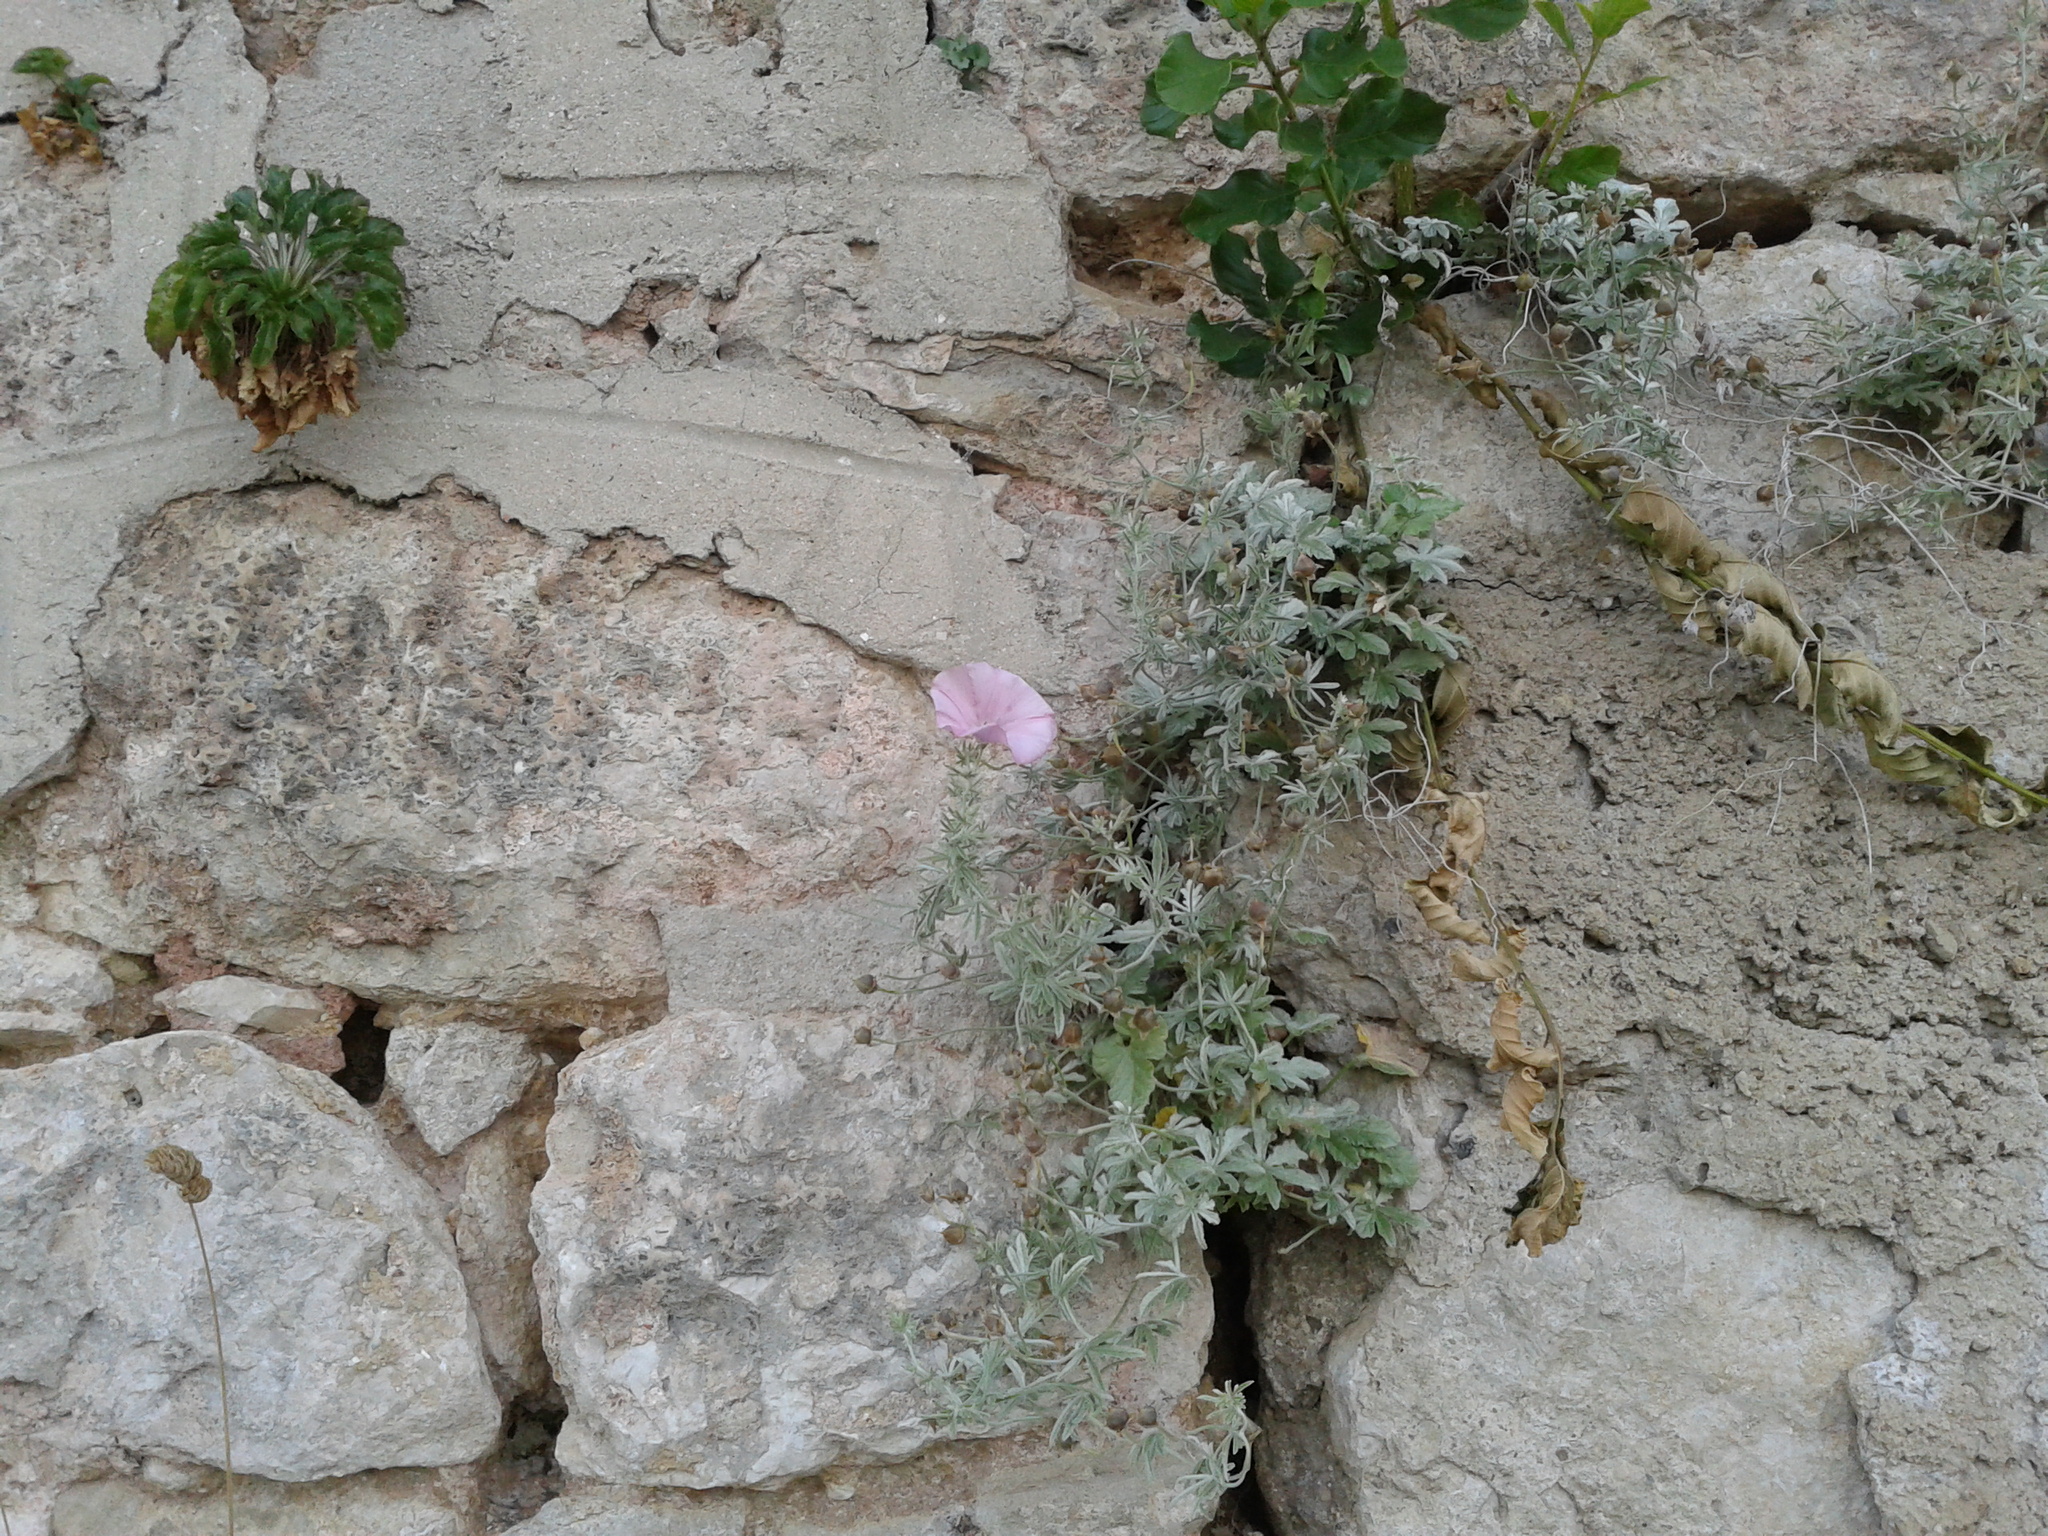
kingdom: Plantae
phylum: Tracheophyta
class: Magnoliopsida
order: Solanales
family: Convolvulaceae
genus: Convolvulus
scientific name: Convolvulus elegantissimus
